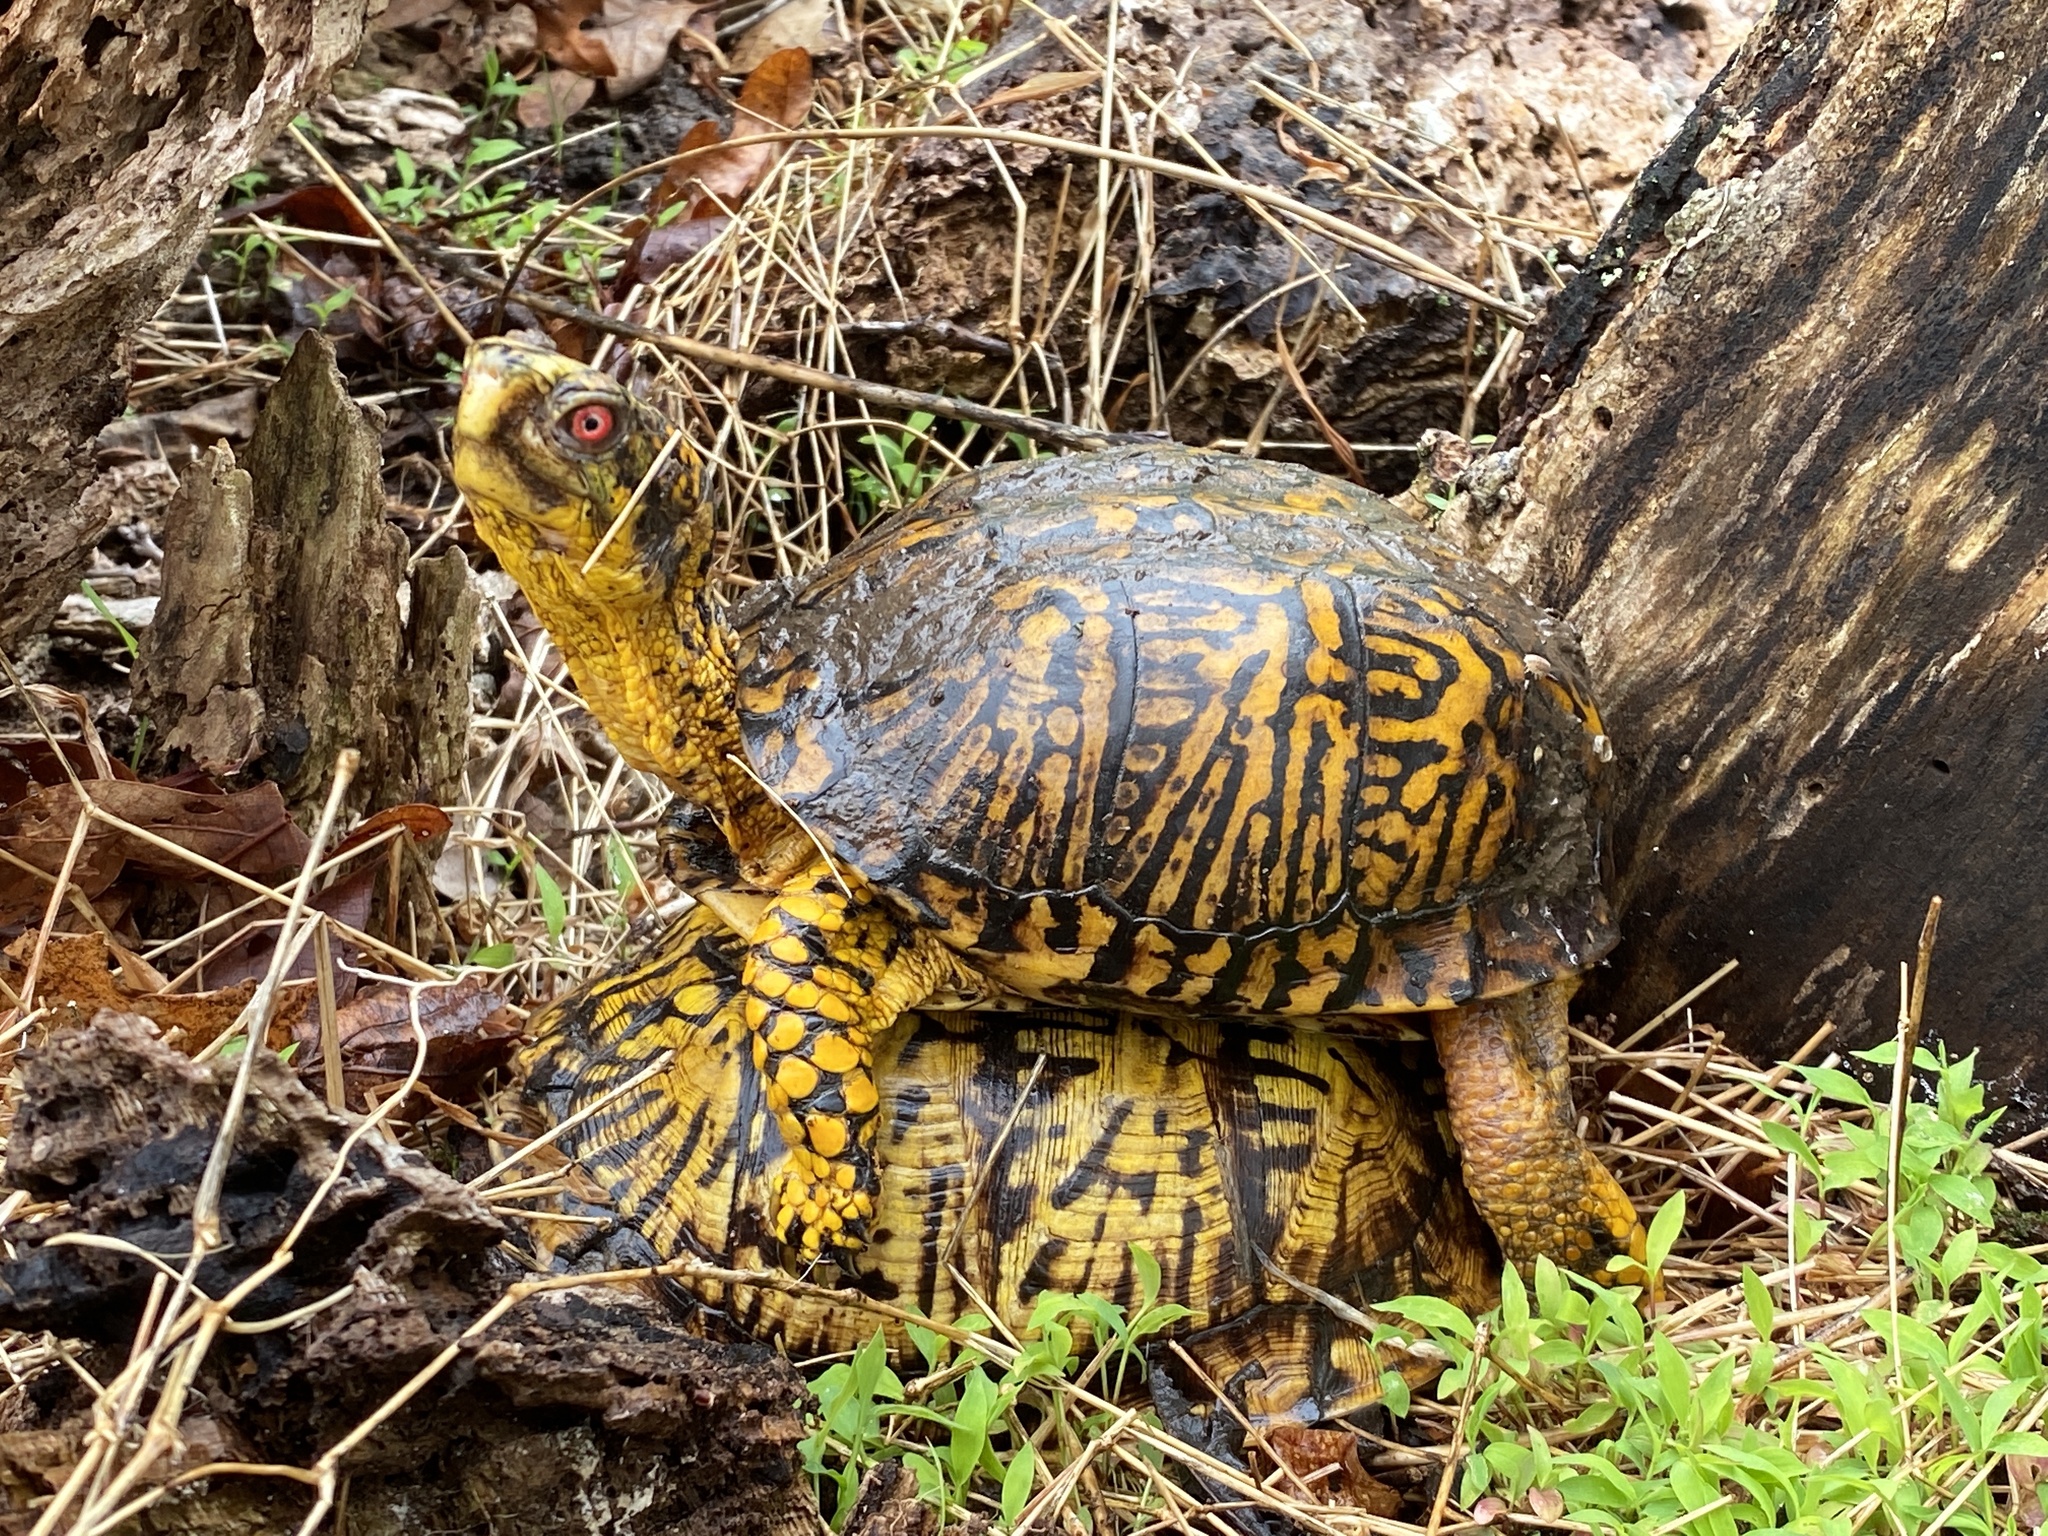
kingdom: Animalia
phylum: Chordata
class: Testudines
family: Emydidae
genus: Terrapene
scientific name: Terrapene carolina
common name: Common box turtle
